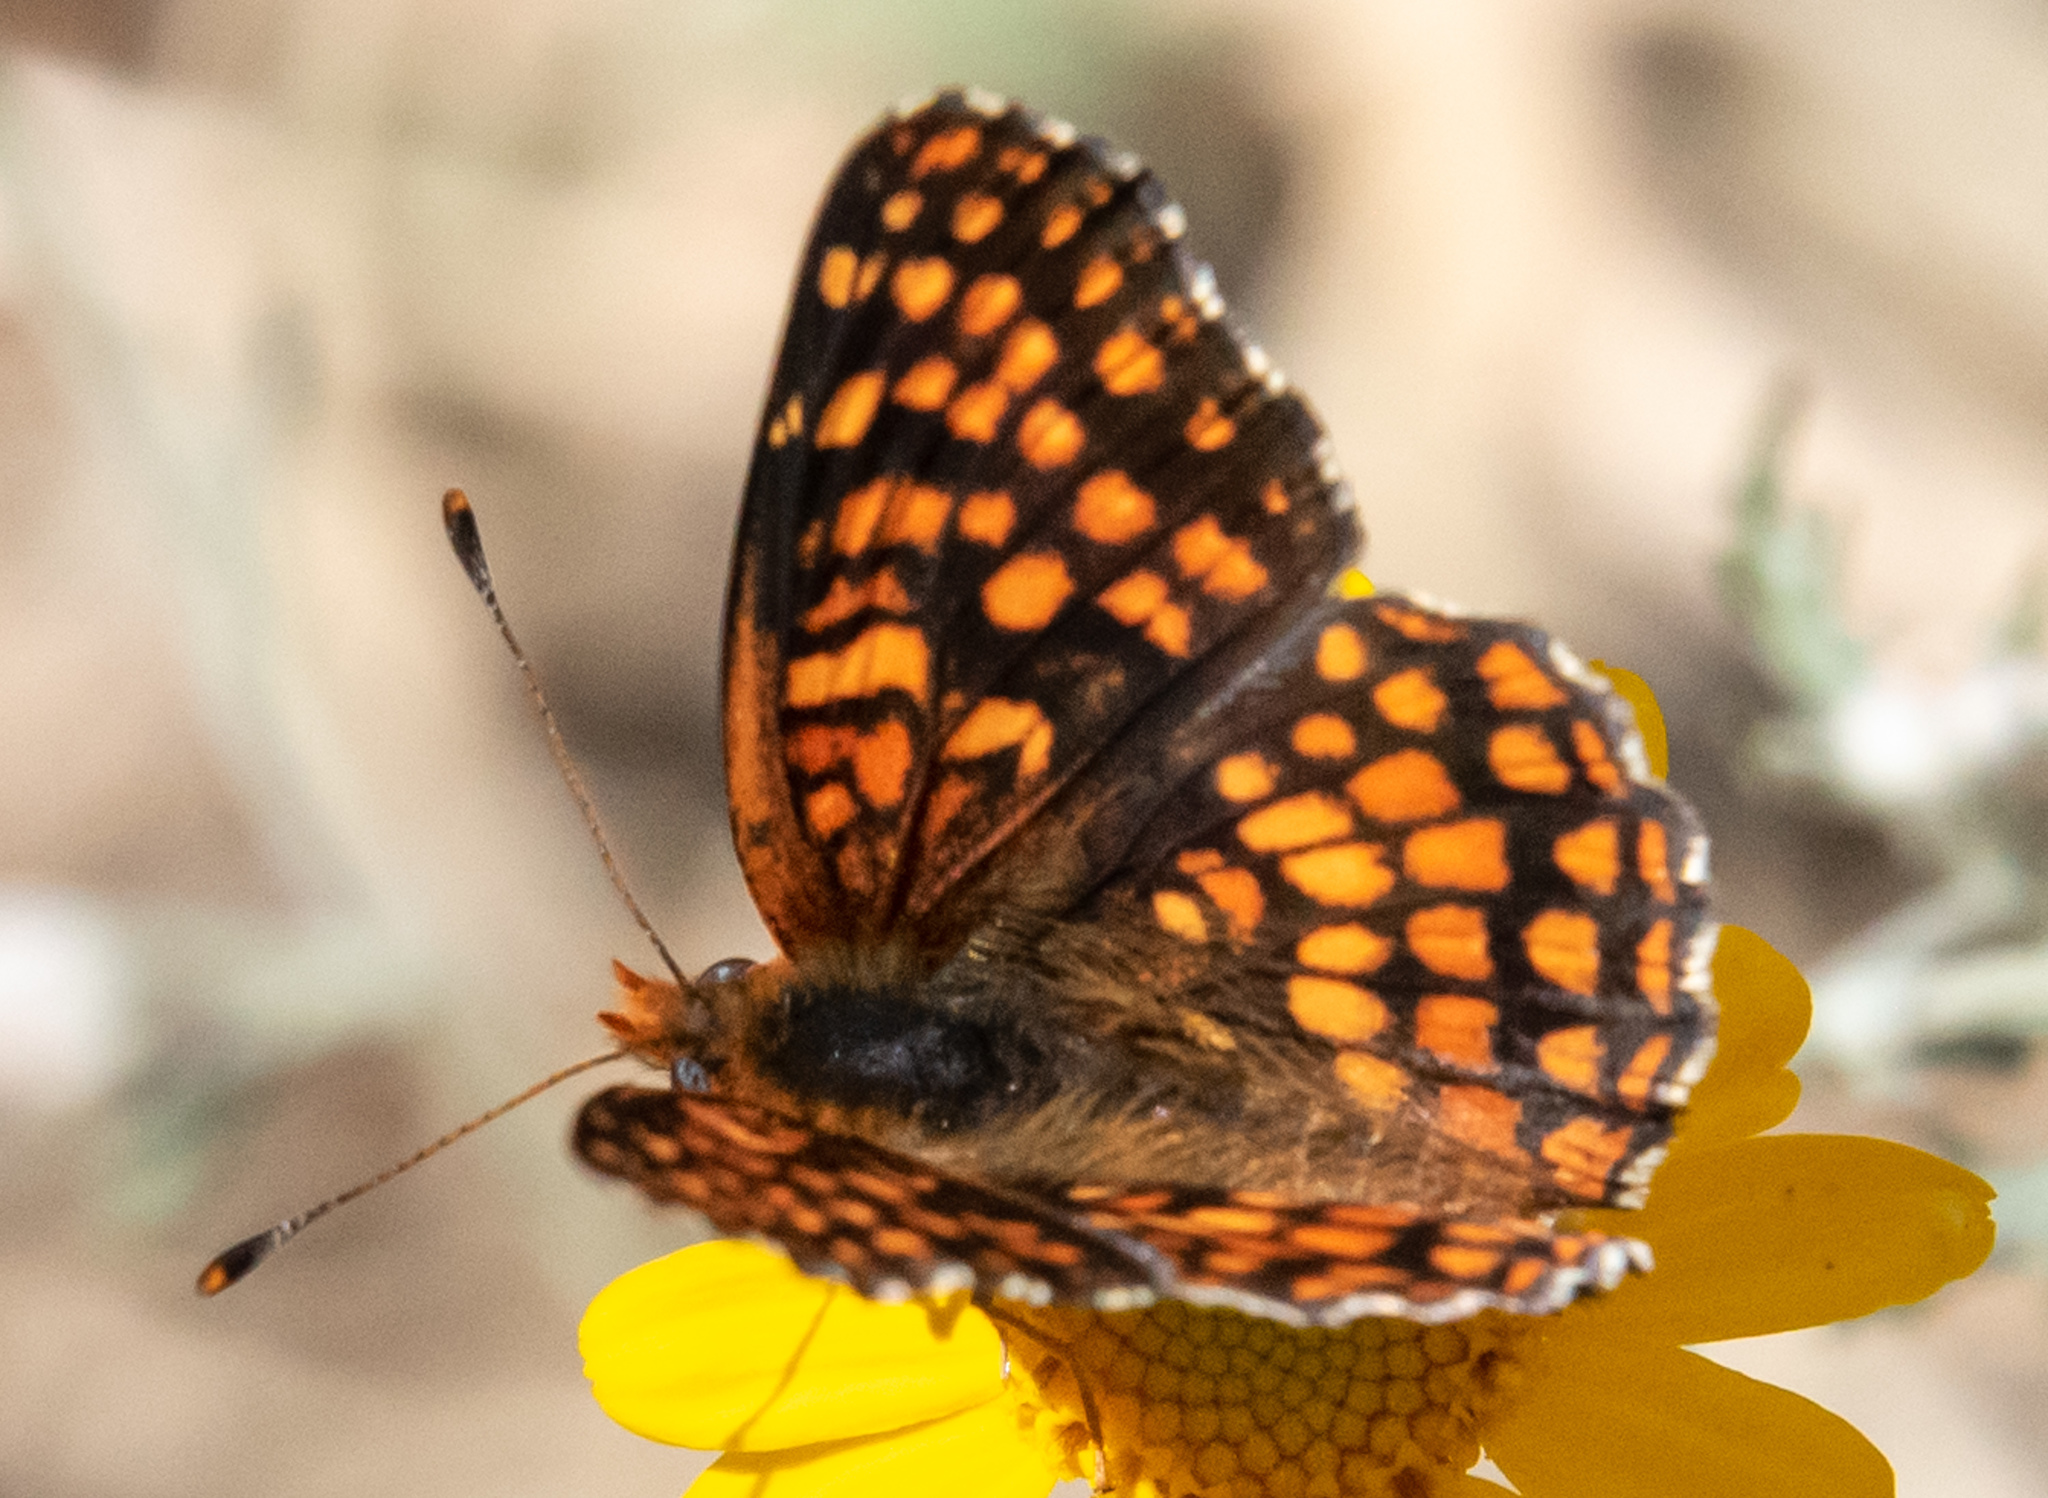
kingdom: Animalia
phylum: Arthropoda
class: Insecta
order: Lepidoptera
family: Nymphalidae
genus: Chlosyne
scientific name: Chlosyne palla
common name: Northern checkerspot
